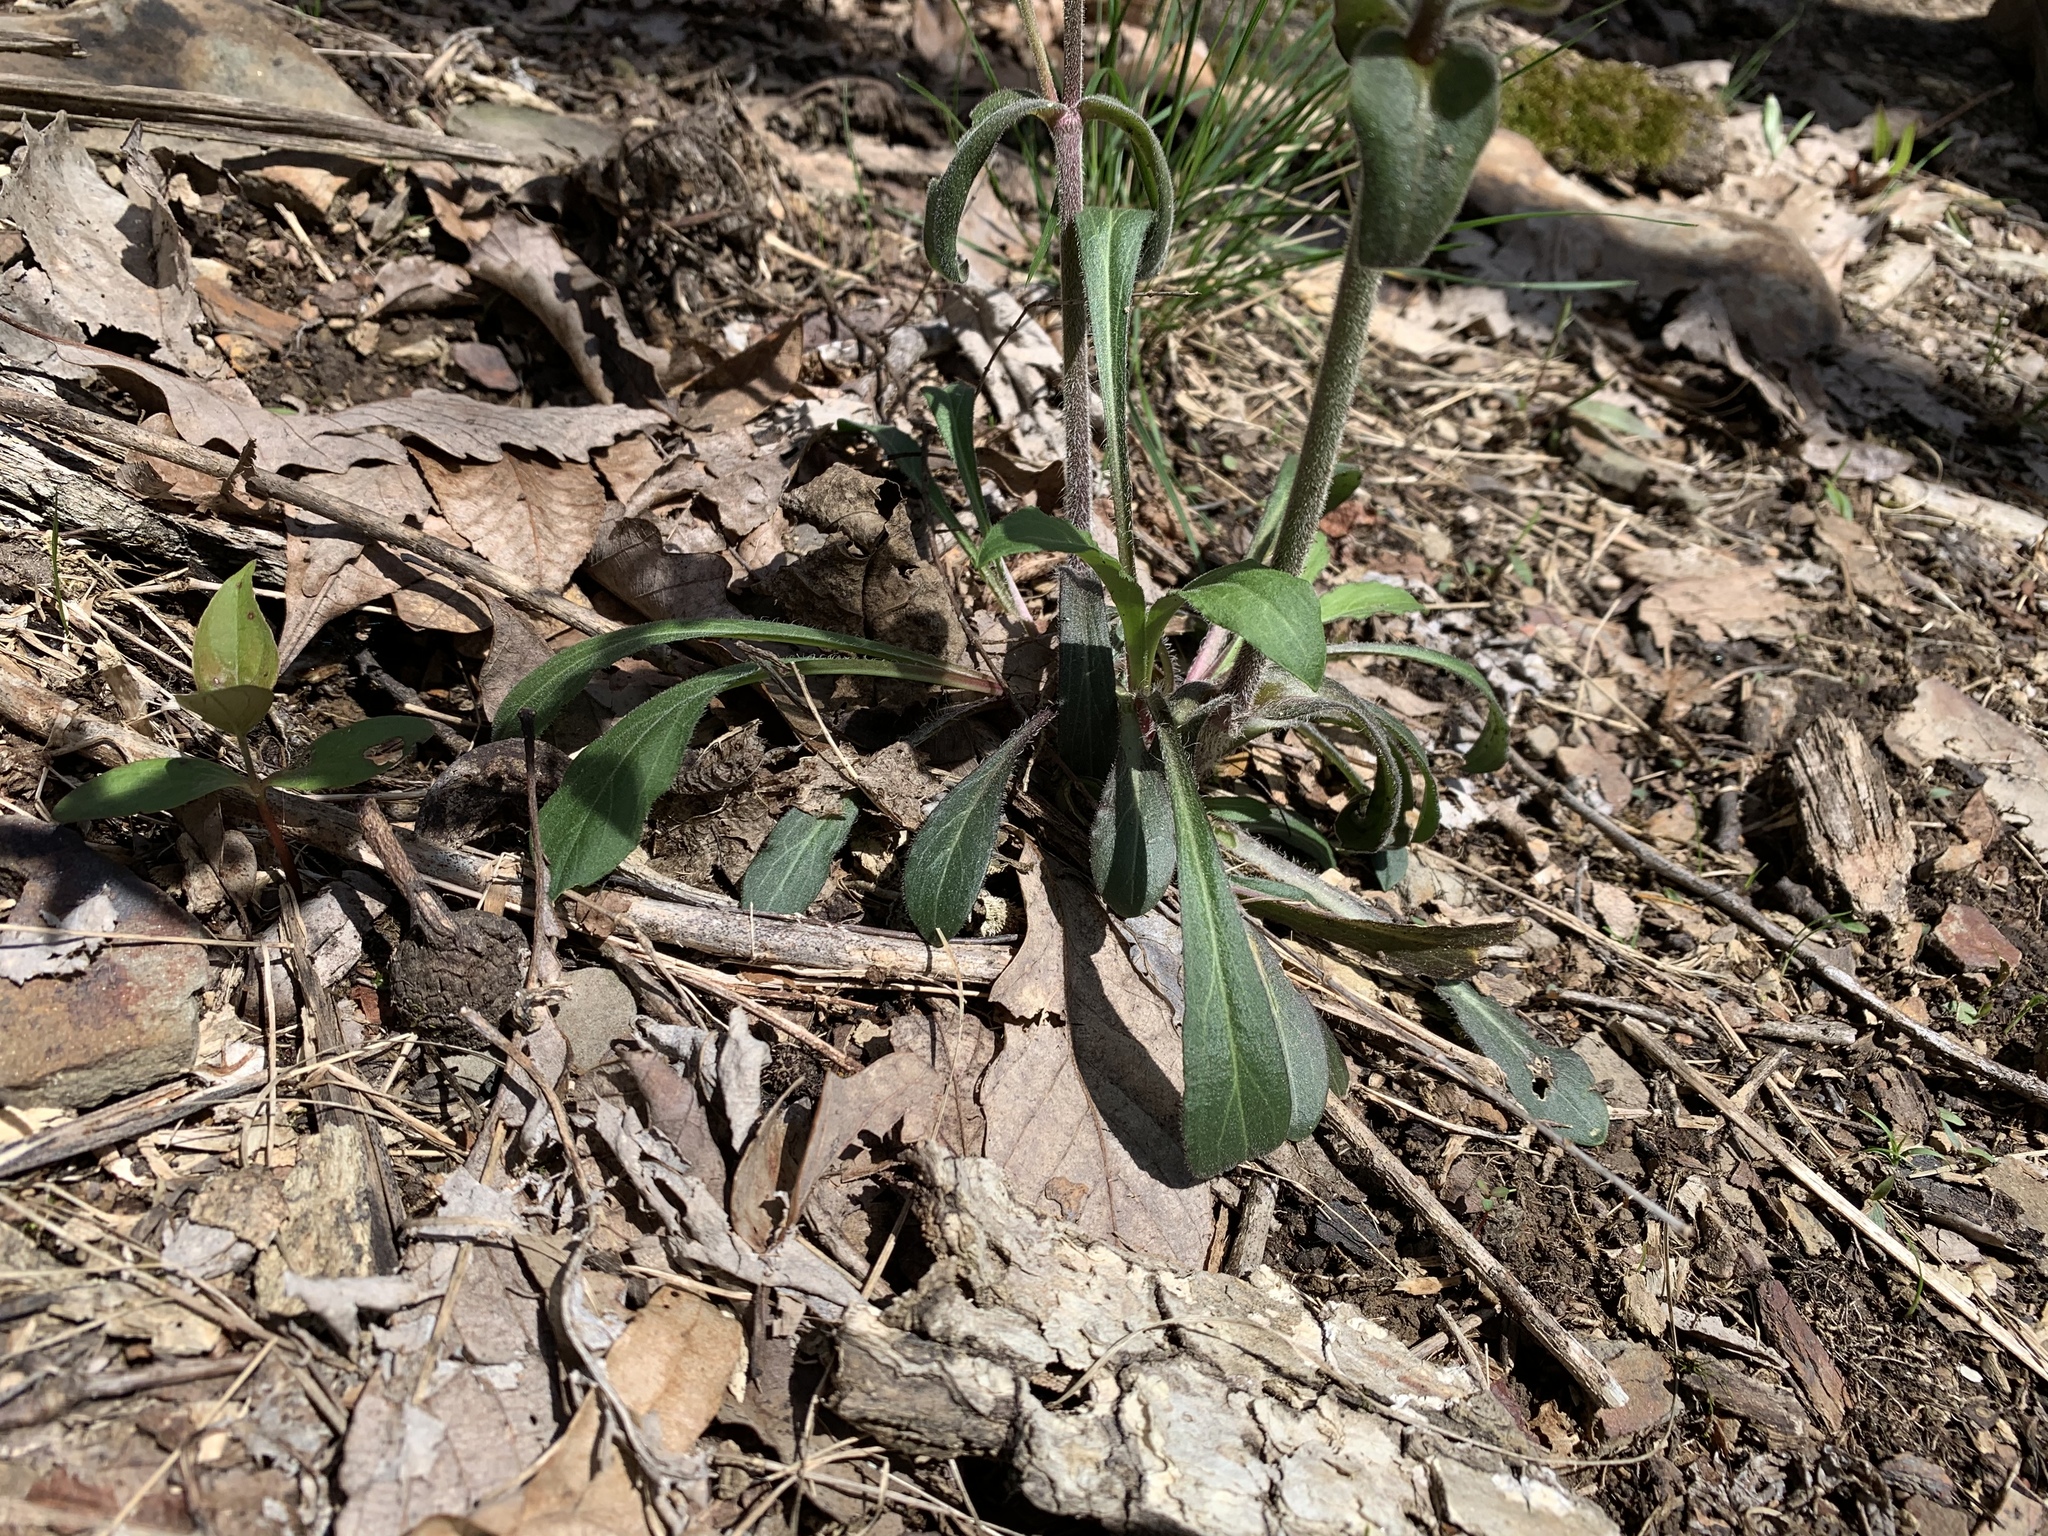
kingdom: Plantae
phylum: Tracheophyta
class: Magnoliopsida
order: Caryophyllales
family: Caryophyllaceae
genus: Silene
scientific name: Silene virginica
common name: Fire-pink
